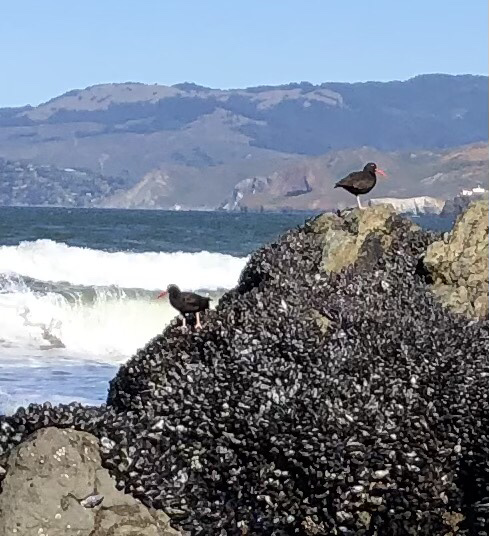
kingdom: Animalia
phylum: Chordata
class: Aves
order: Charadriiformes
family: Haematopodidae
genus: Haematopus
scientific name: Haematopus bachmani
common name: Black oystercatcher
